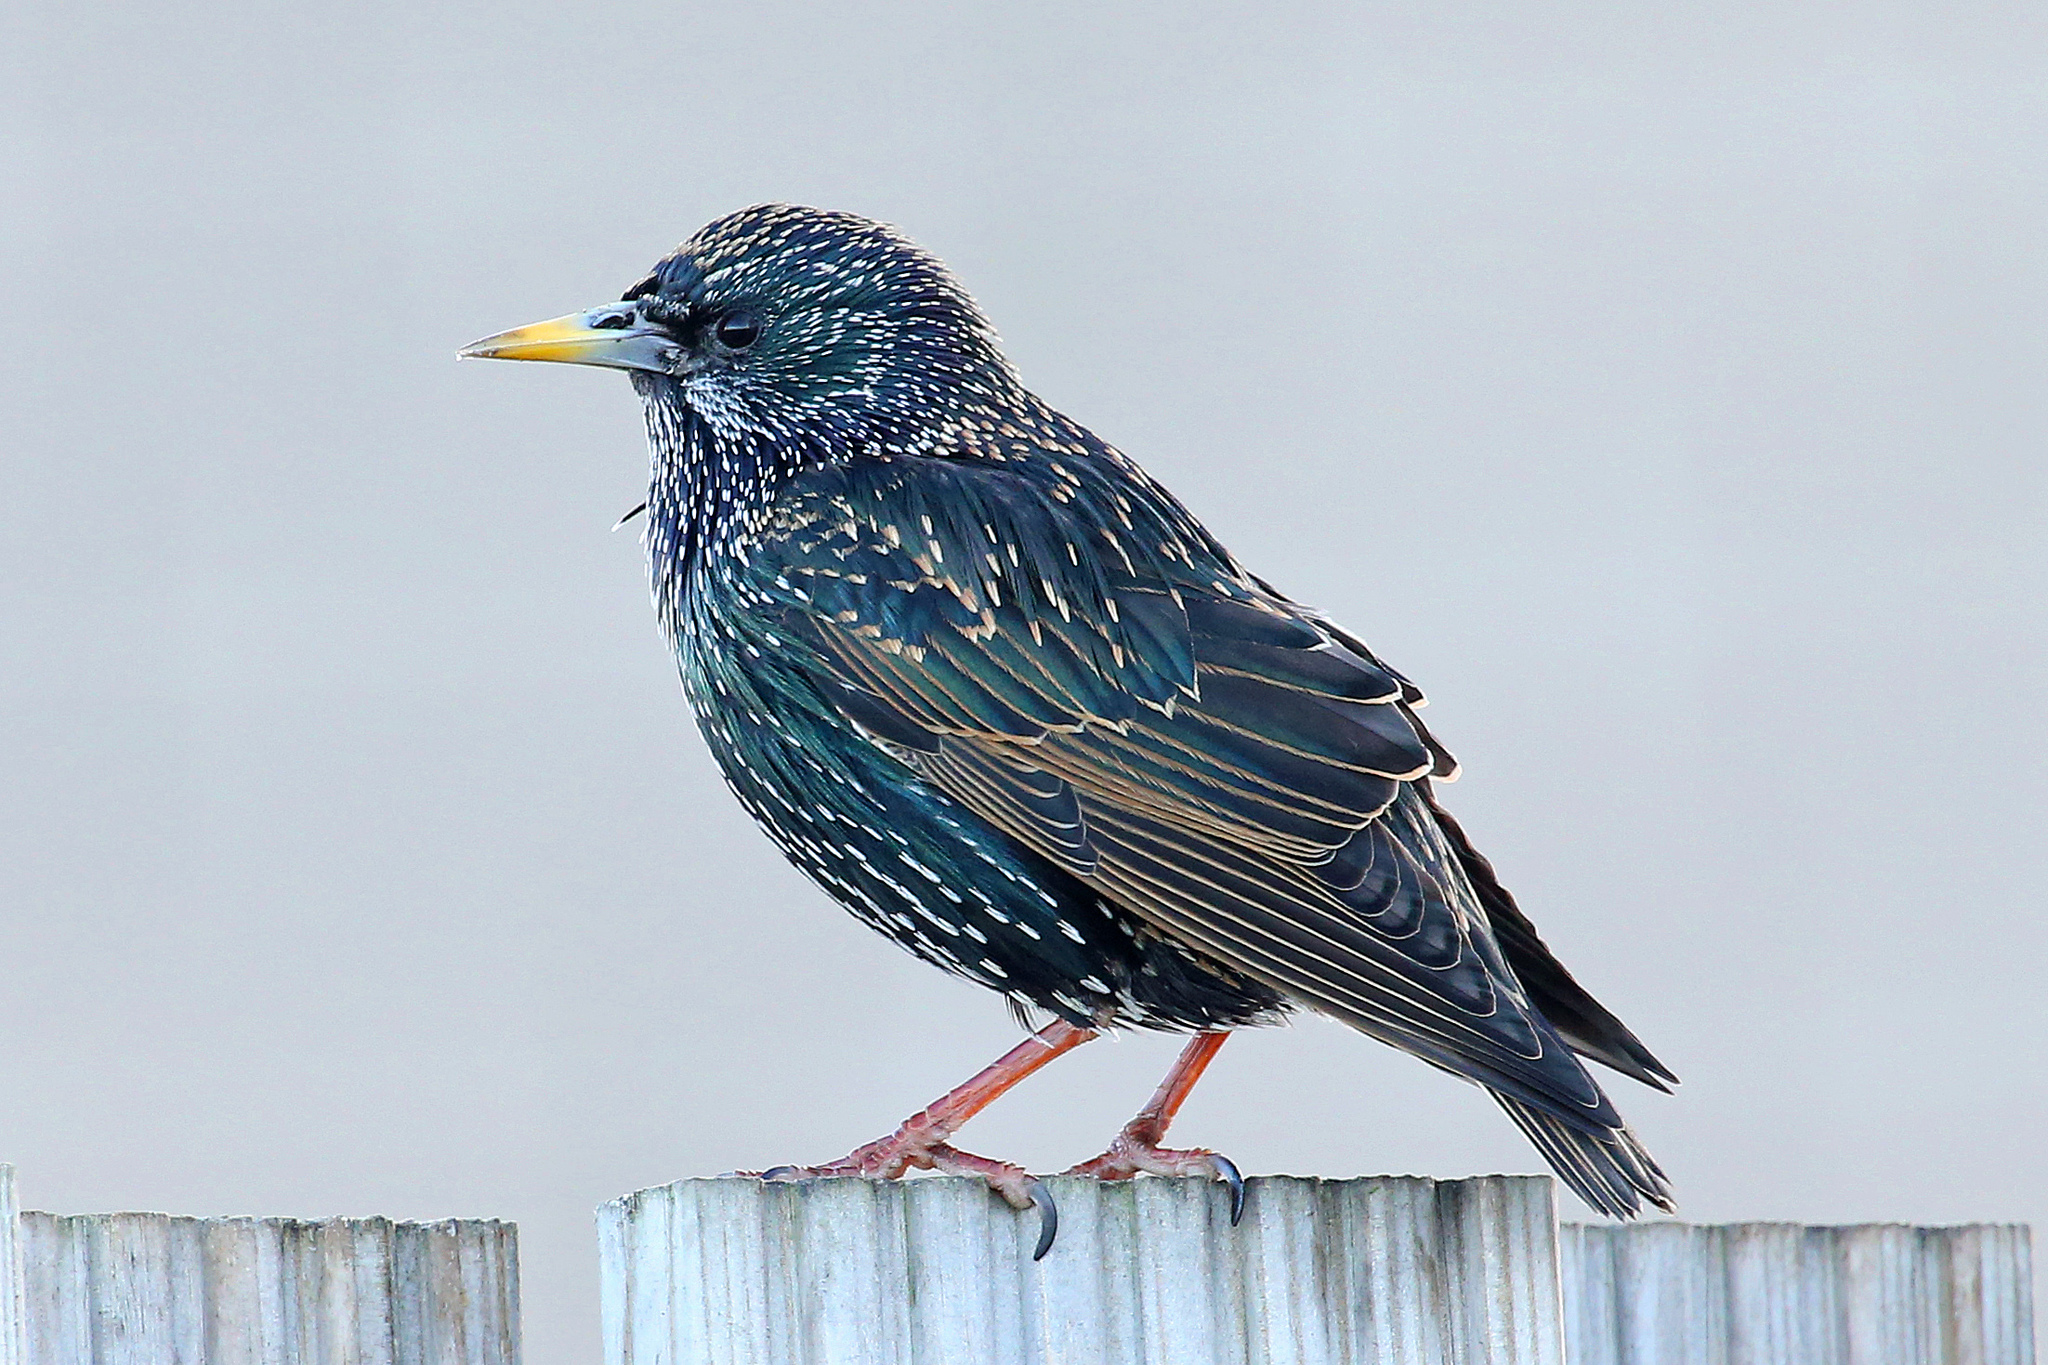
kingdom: Animalia
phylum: Chordata
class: Aves
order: Passeriformes
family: Sturnidae
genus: Sturnus
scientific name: Sturnus vulgaris
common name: Common starling
